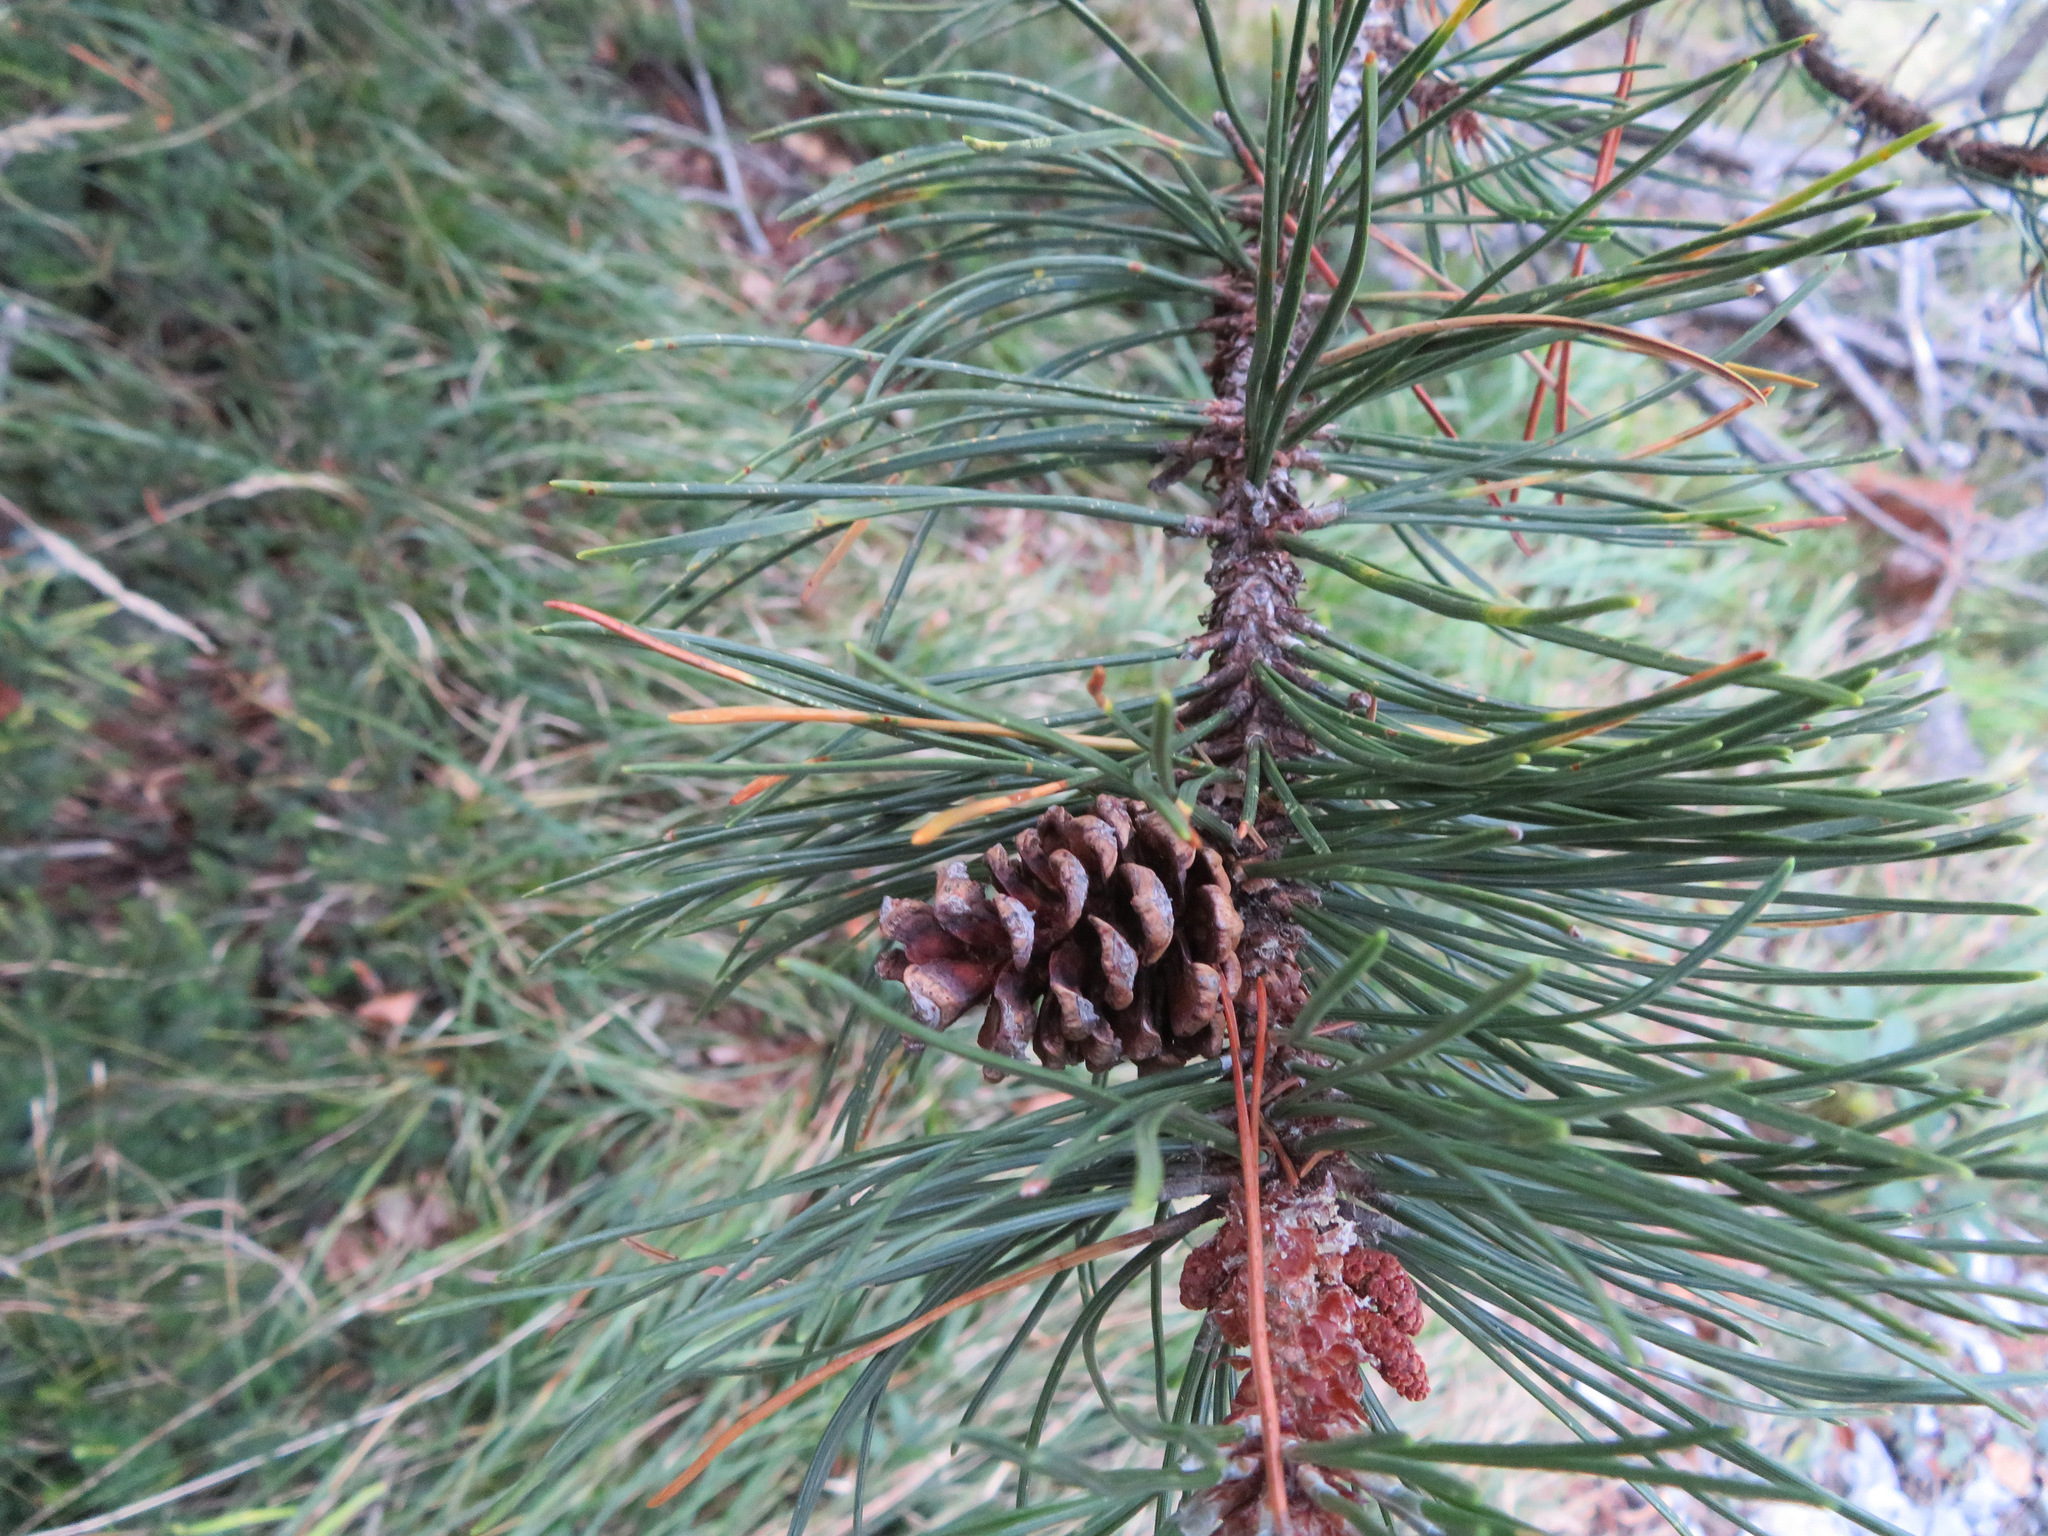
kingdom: Plantae
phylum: Tracheophyta
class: Pinopsida
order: Pinales
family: Pinaceae
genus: Pinus
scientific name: Pinus mugo
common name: Mugo pine
